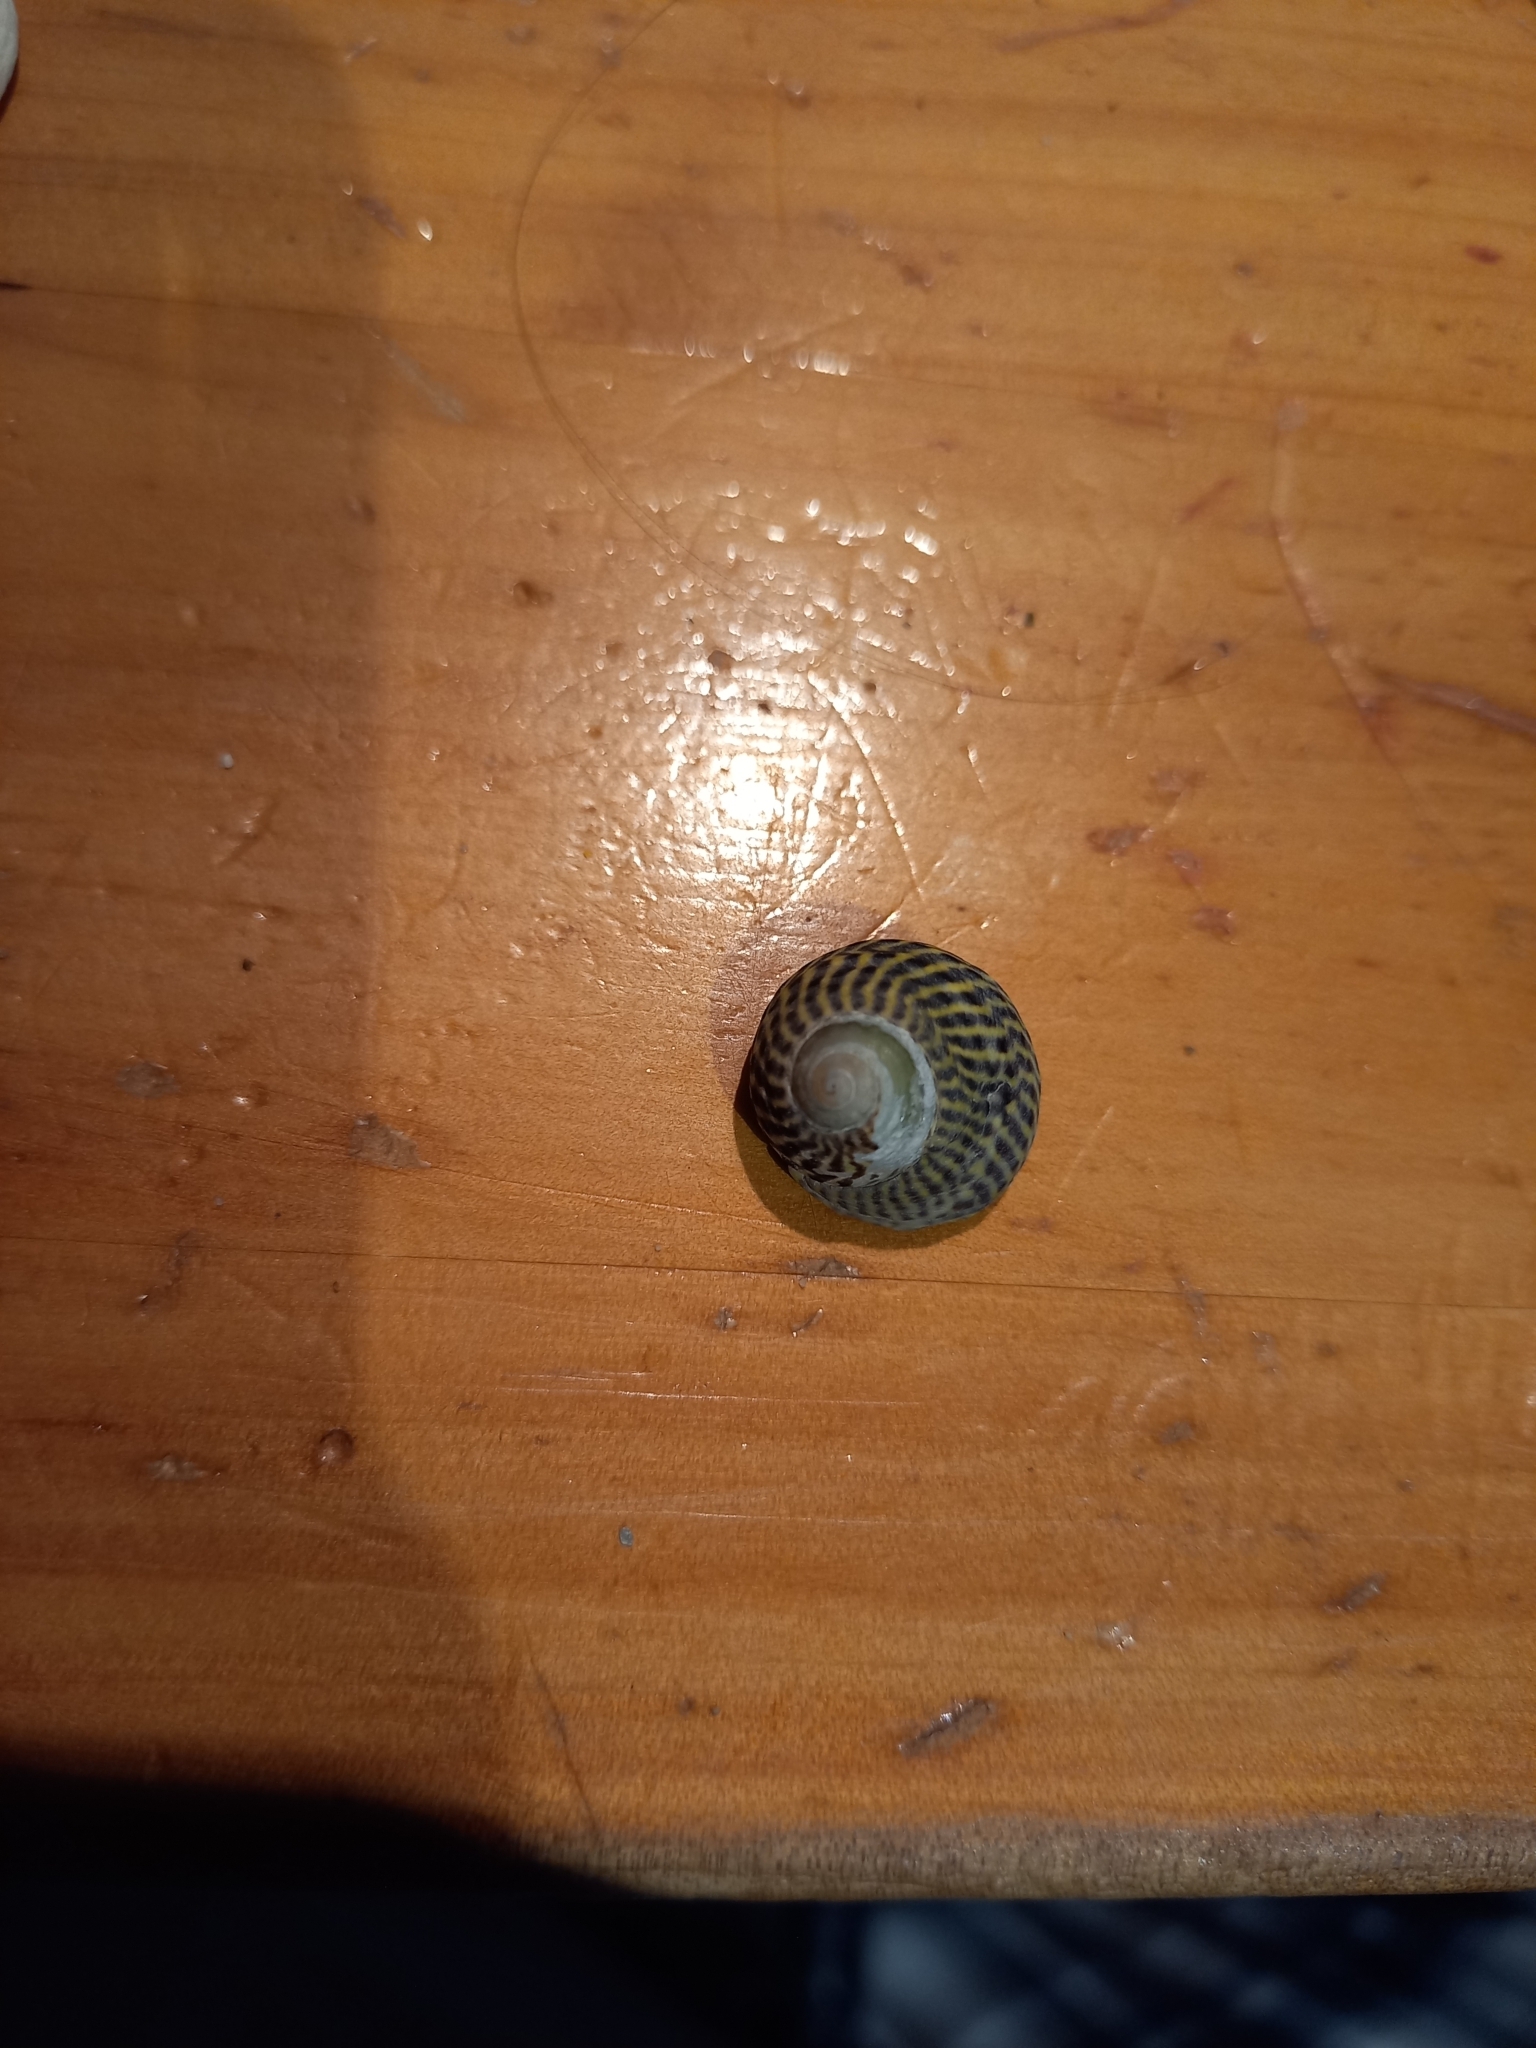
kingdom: Animalia
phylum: Mollusca
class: Gastropoda
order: Trochida
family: Trochidae
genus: Diloma
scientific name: Diloma subrostratum
